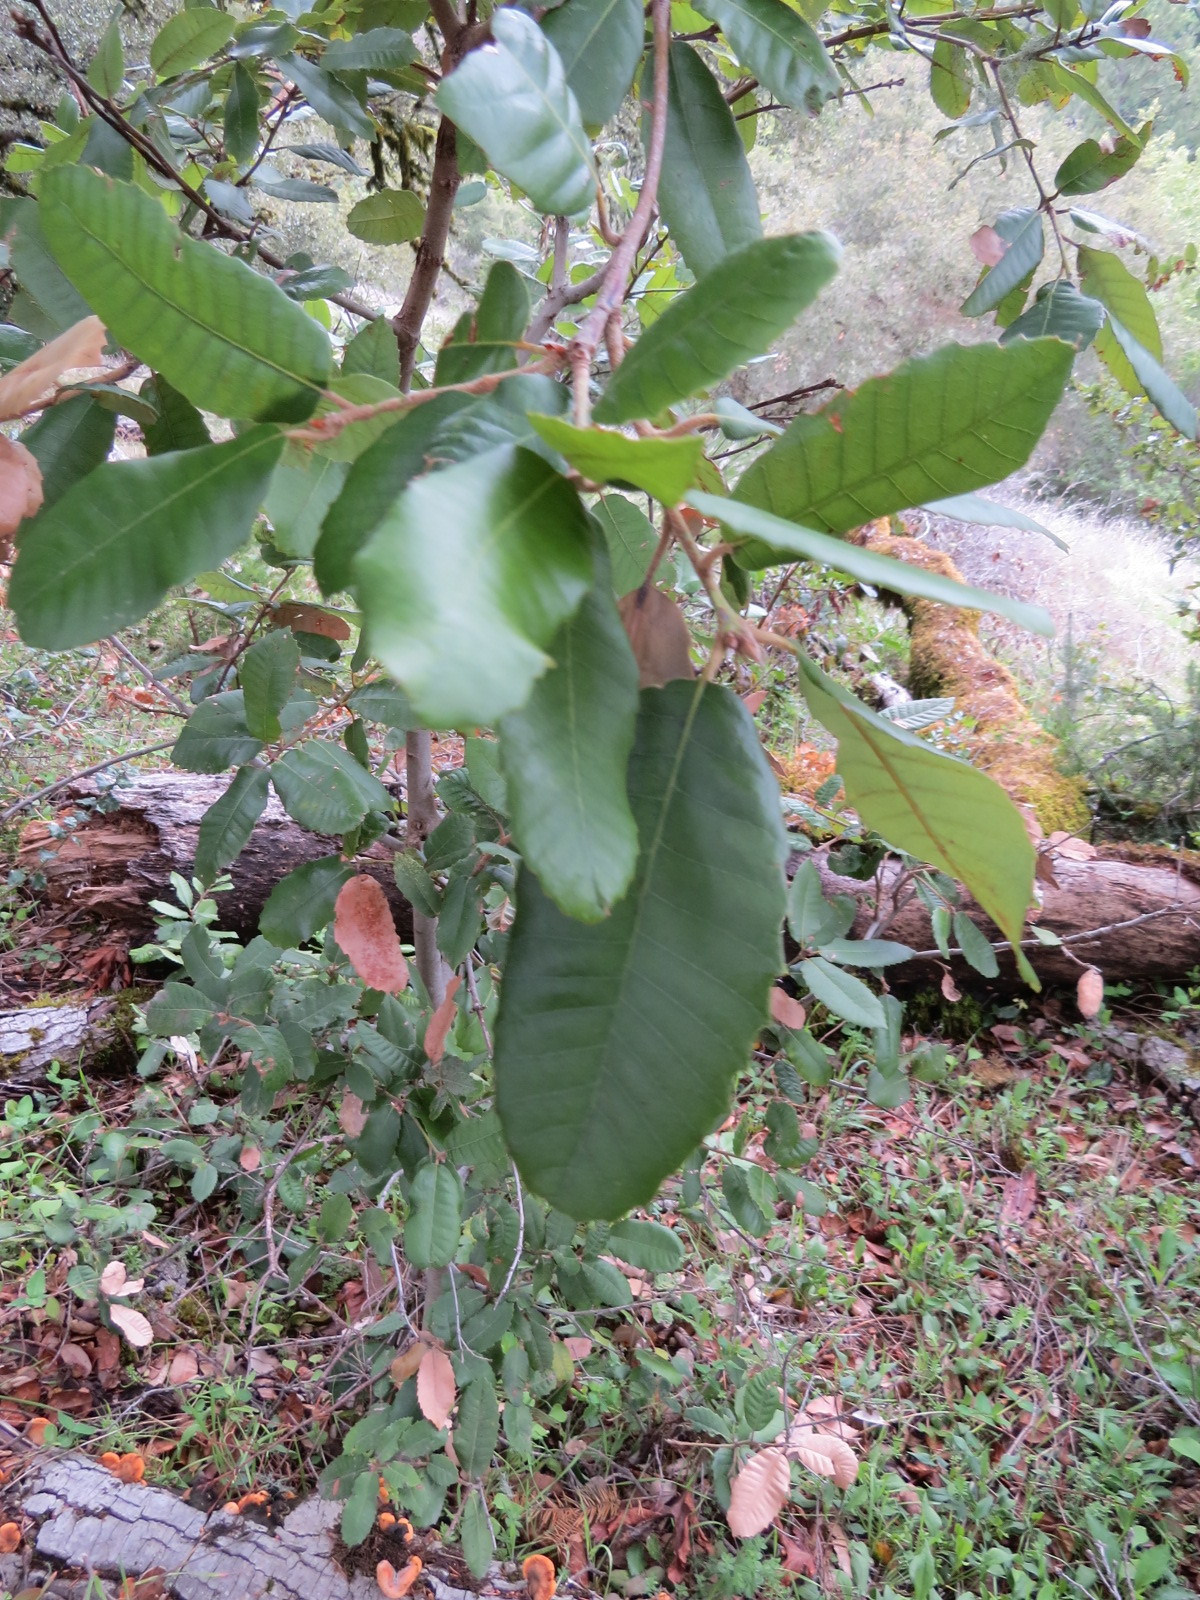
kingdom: Plantae
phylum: Tracheophyta
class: Magnoliopsida
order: Fagales
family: Fagaceae
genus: Notholithocarpus
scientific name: Notholithocarpus densiflorus
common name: Tan bark oak
